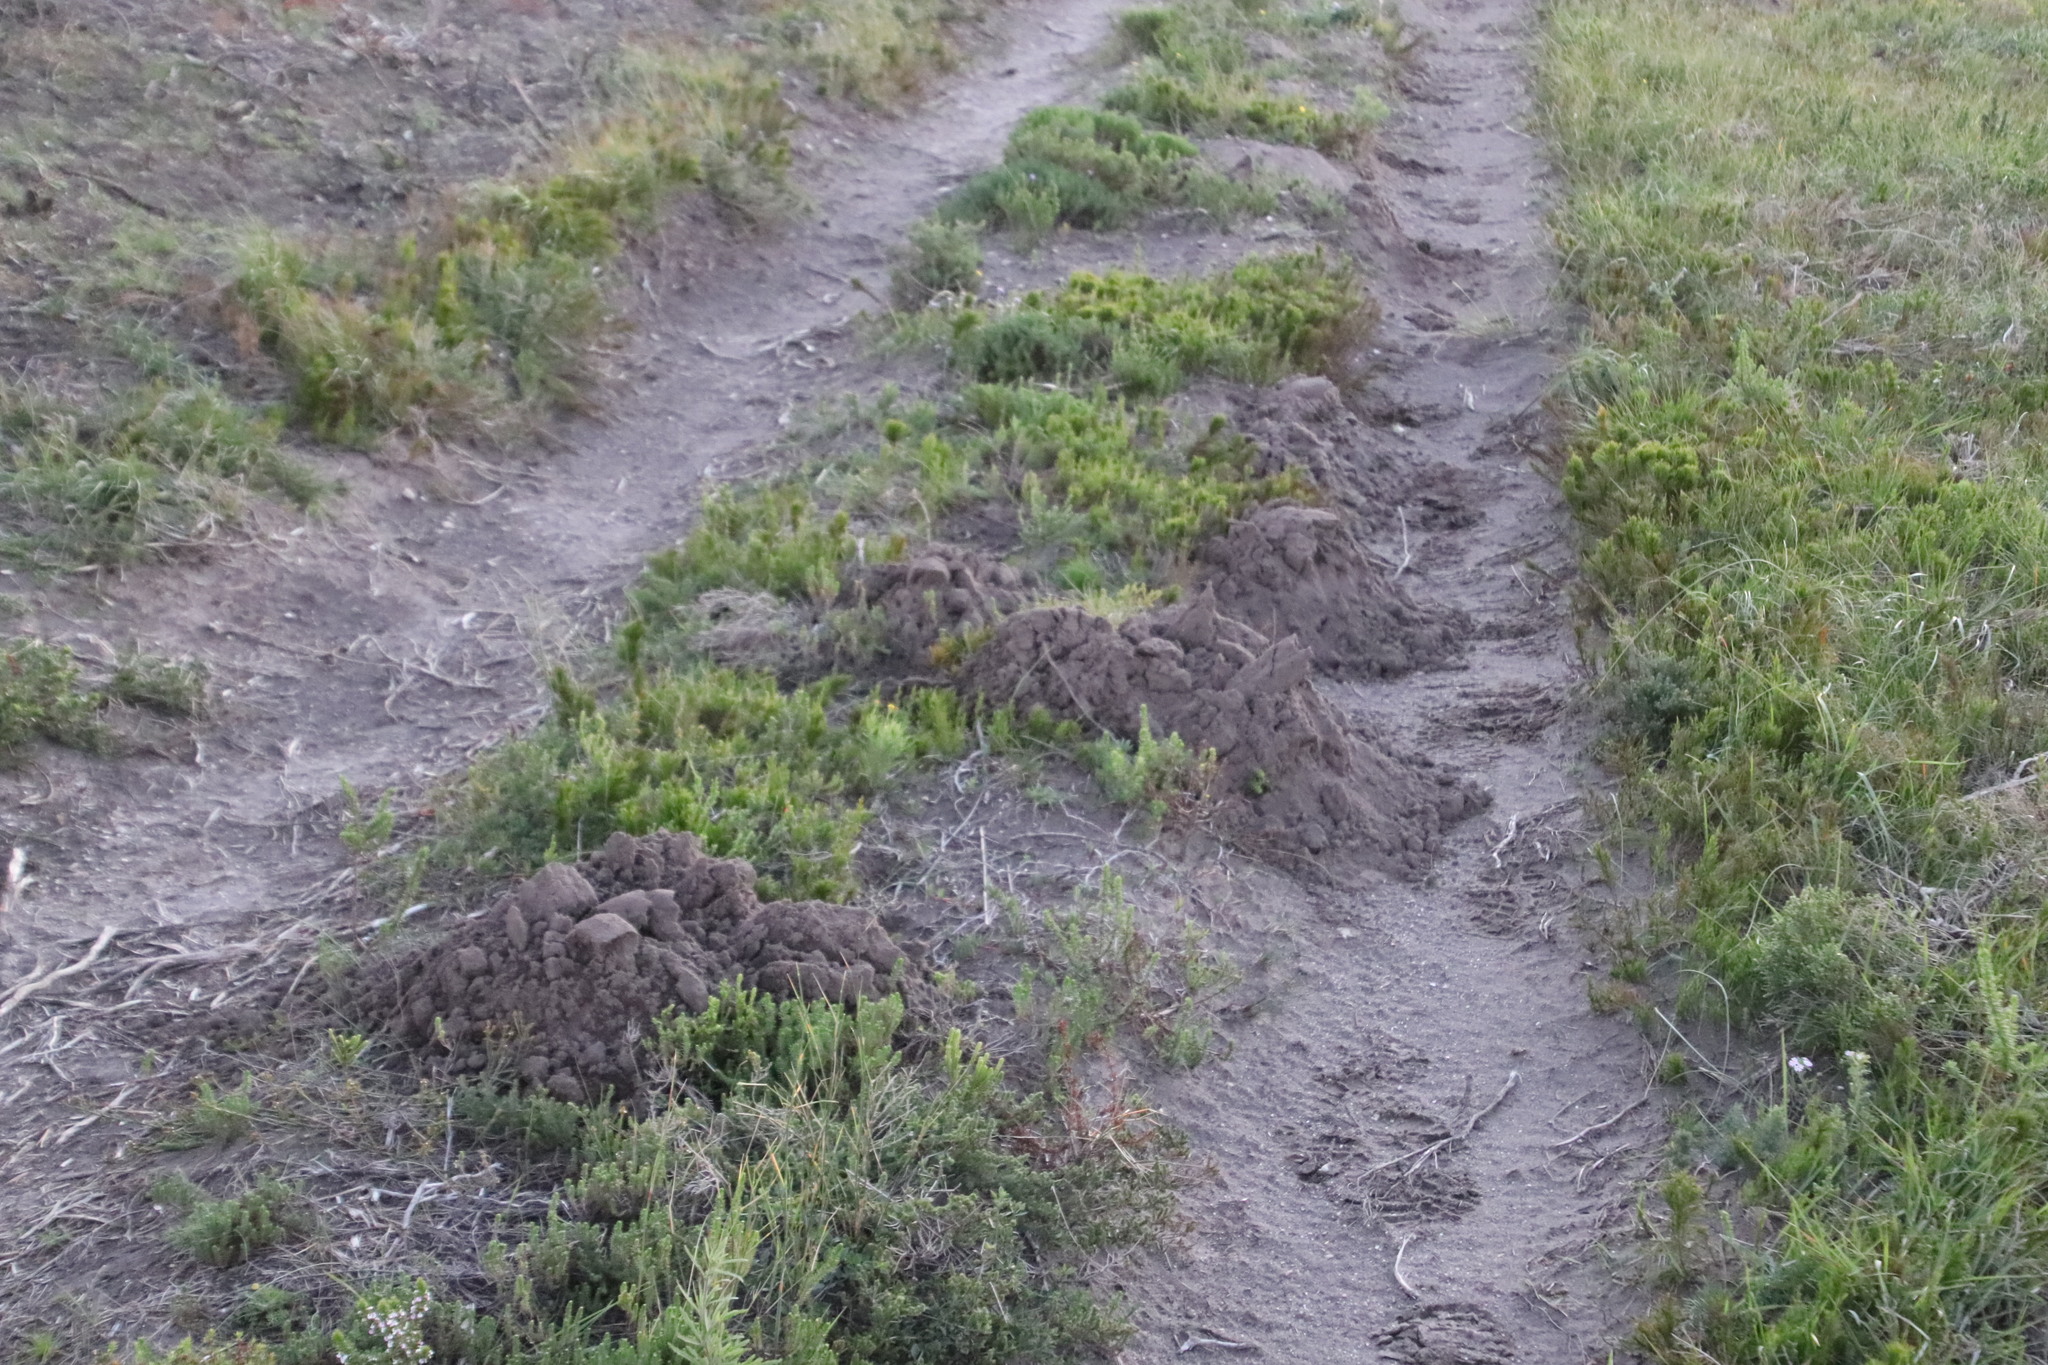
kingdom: Animalia
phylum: Chordata
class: Mammalia
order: Rodentia
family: Bathyergidae
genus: Bathyergus
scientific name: Bathyergus suillus
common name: Cape dune mole rat
